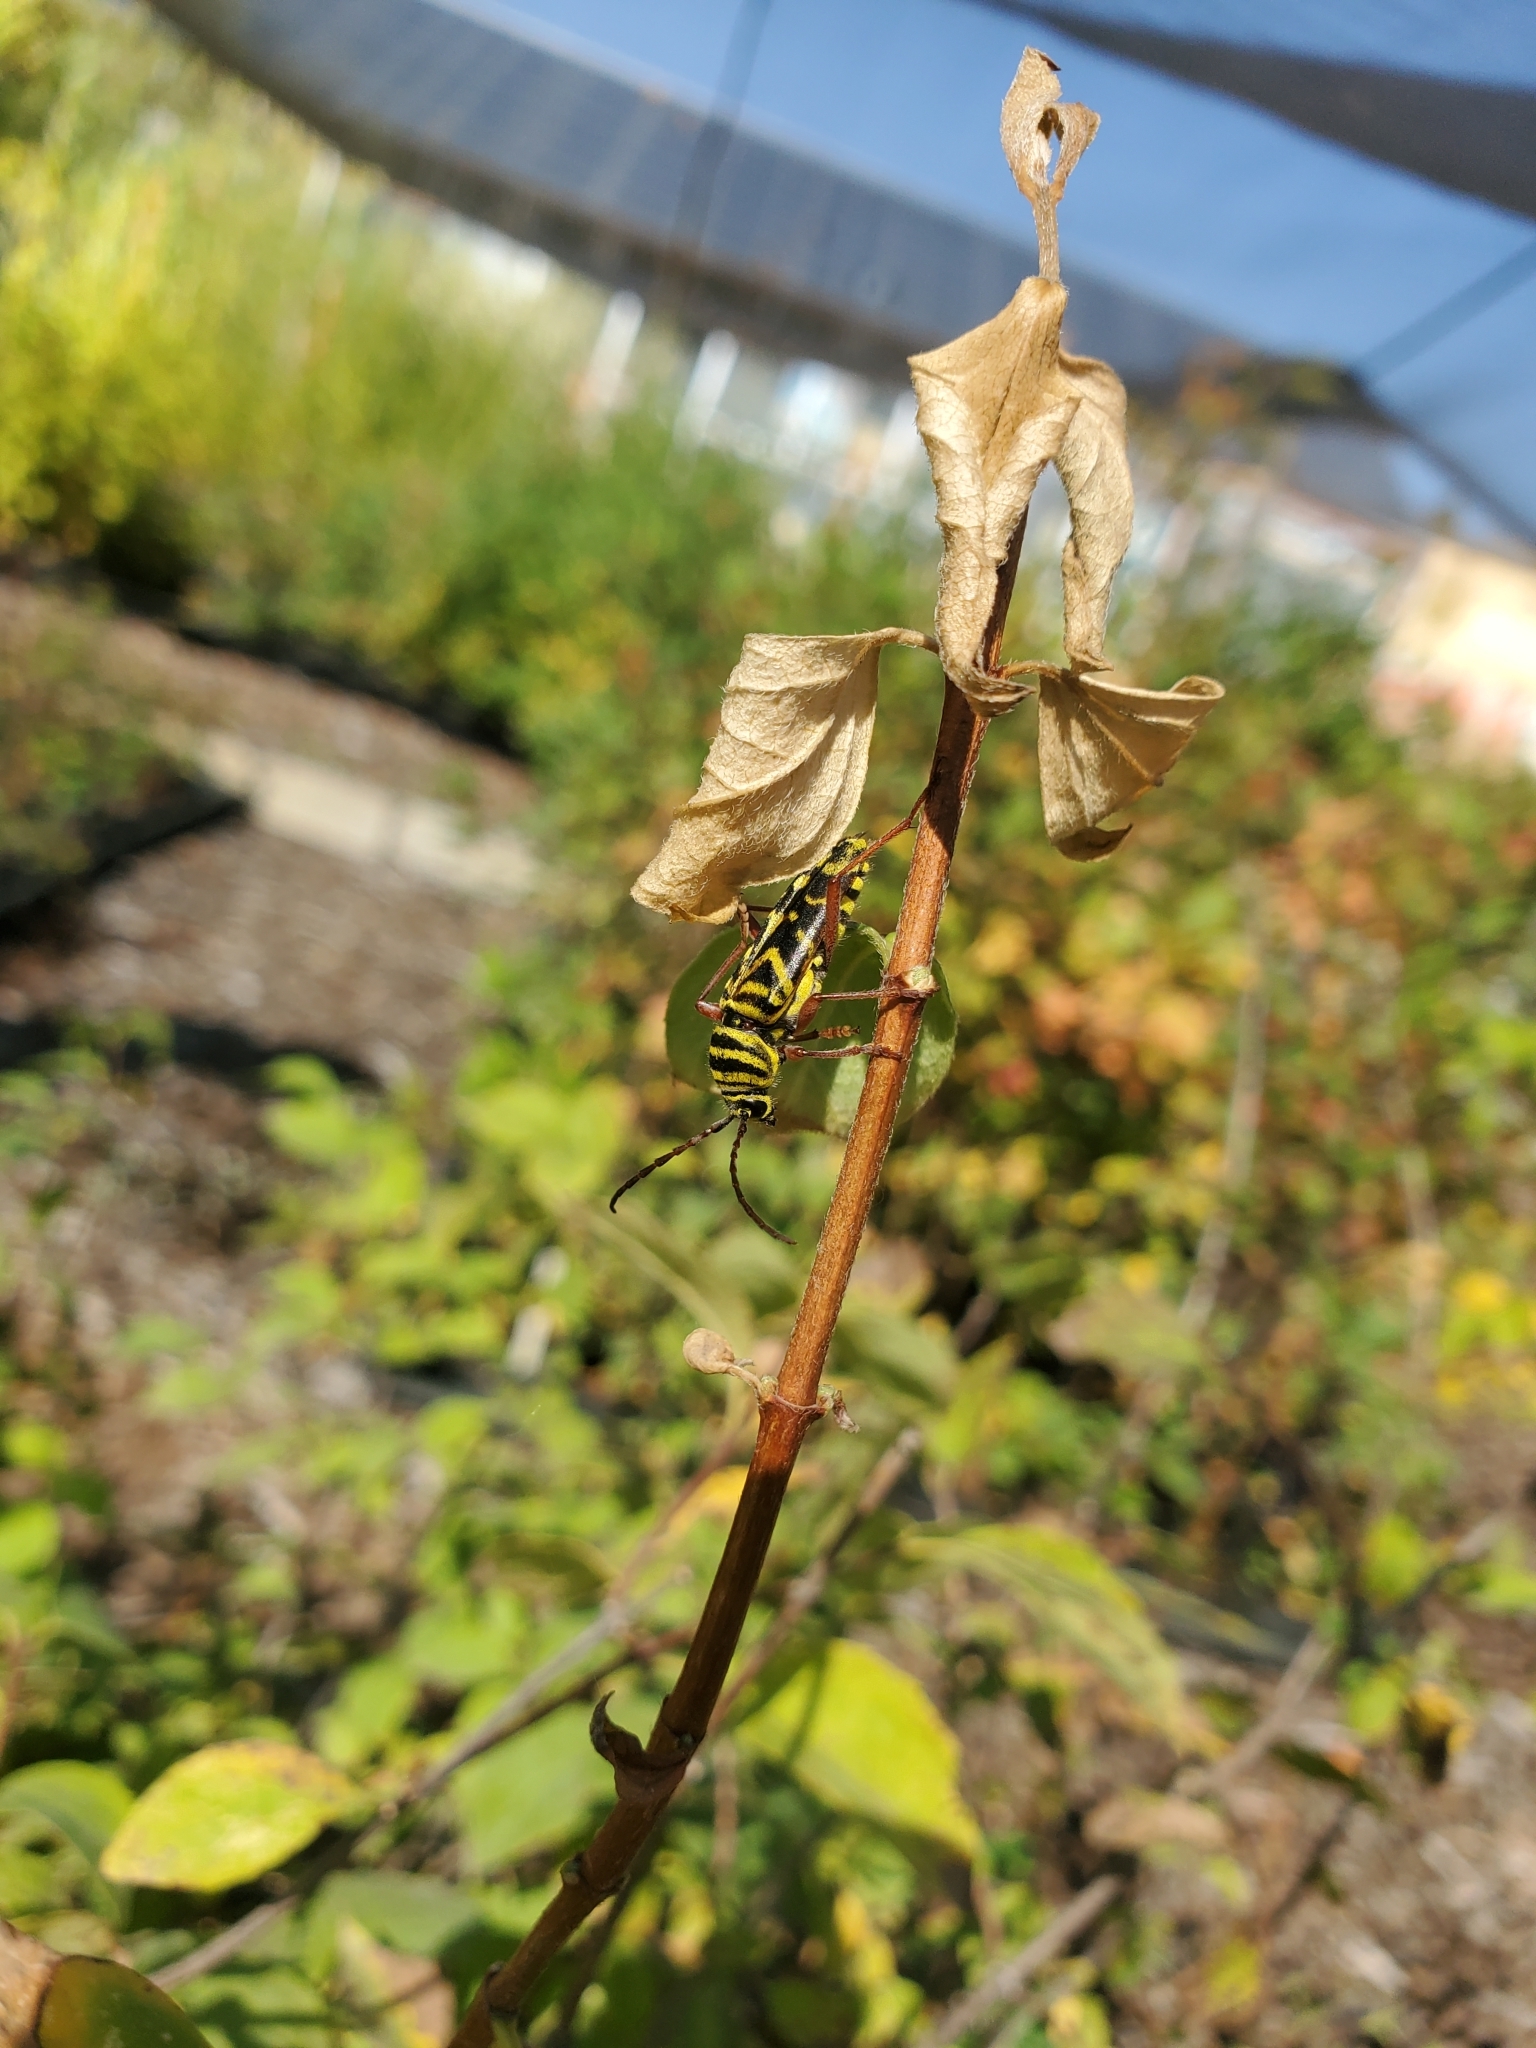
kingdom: Animalia
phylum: Arthropoda
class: Insecta
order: Coleoptera
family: Cerambycidae
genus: Megacyllene
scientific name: Megacyllene robiniae
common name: Locust borer
